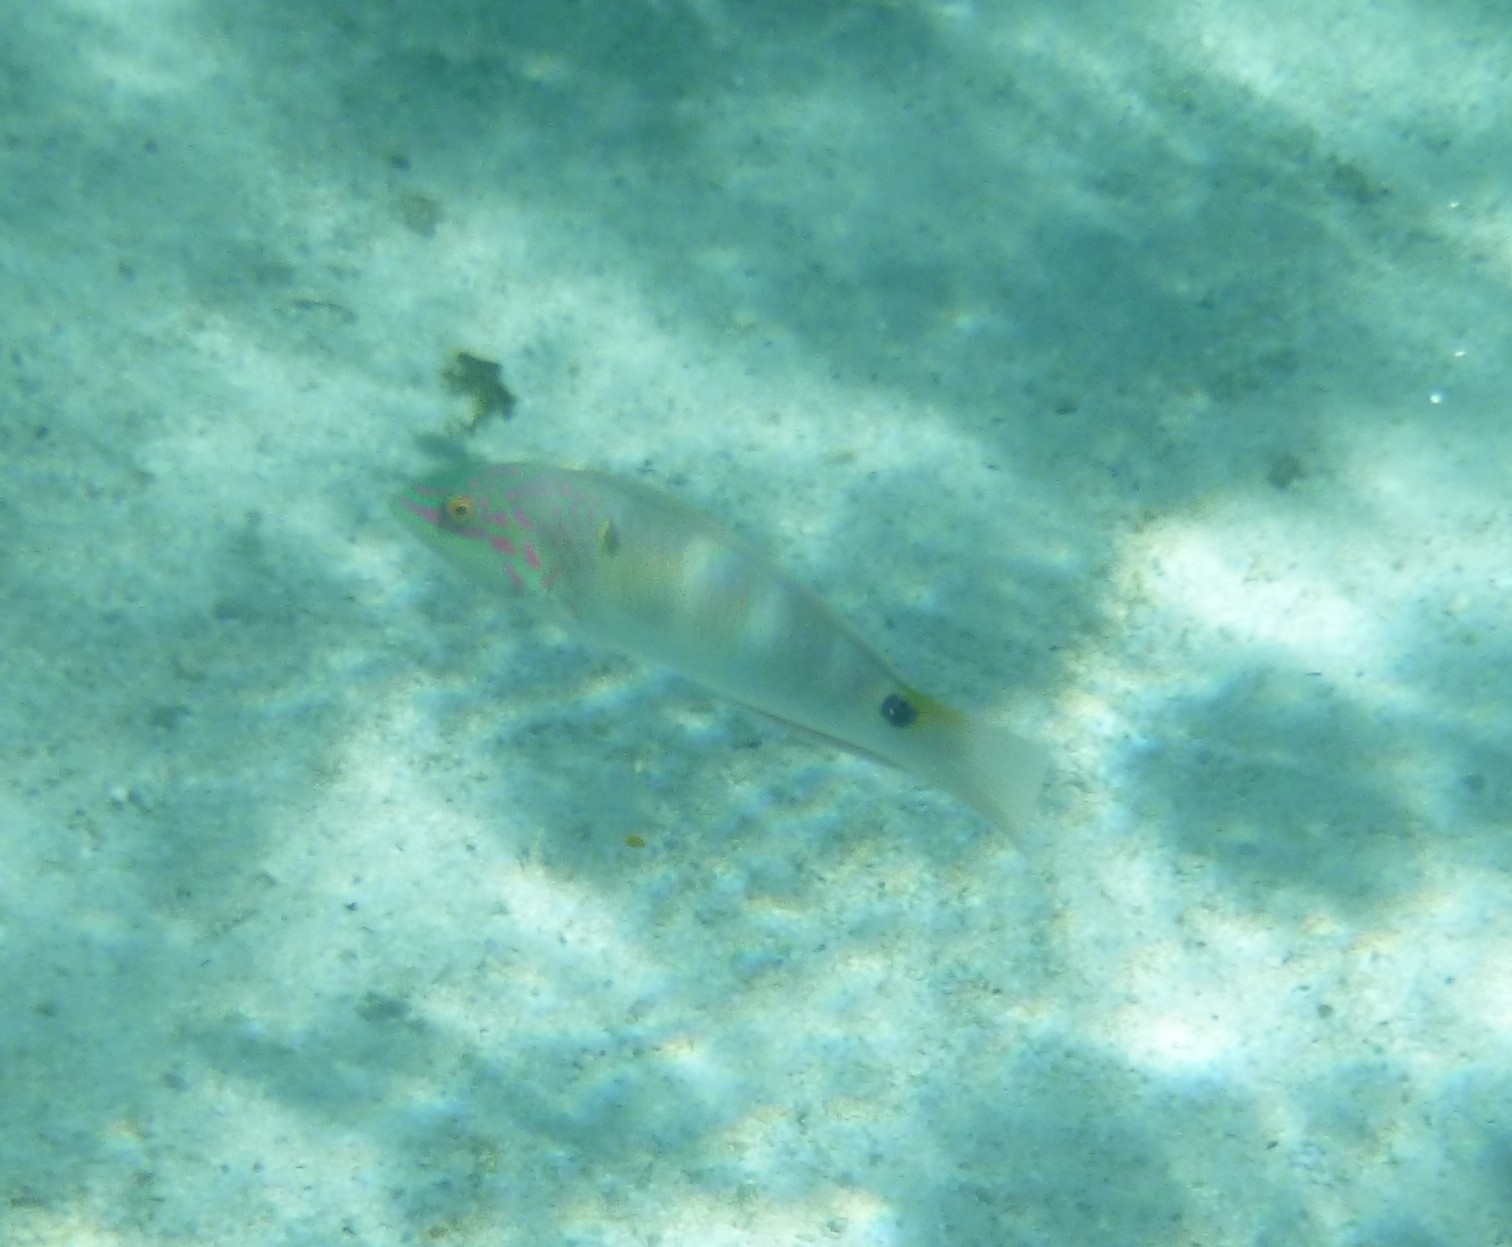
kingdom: Animalia
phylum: Chordata
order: Perciformes
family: Labridae
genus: Halichoeres
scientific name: Halichoeres trimaculatus
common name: Three-spot wrasse
